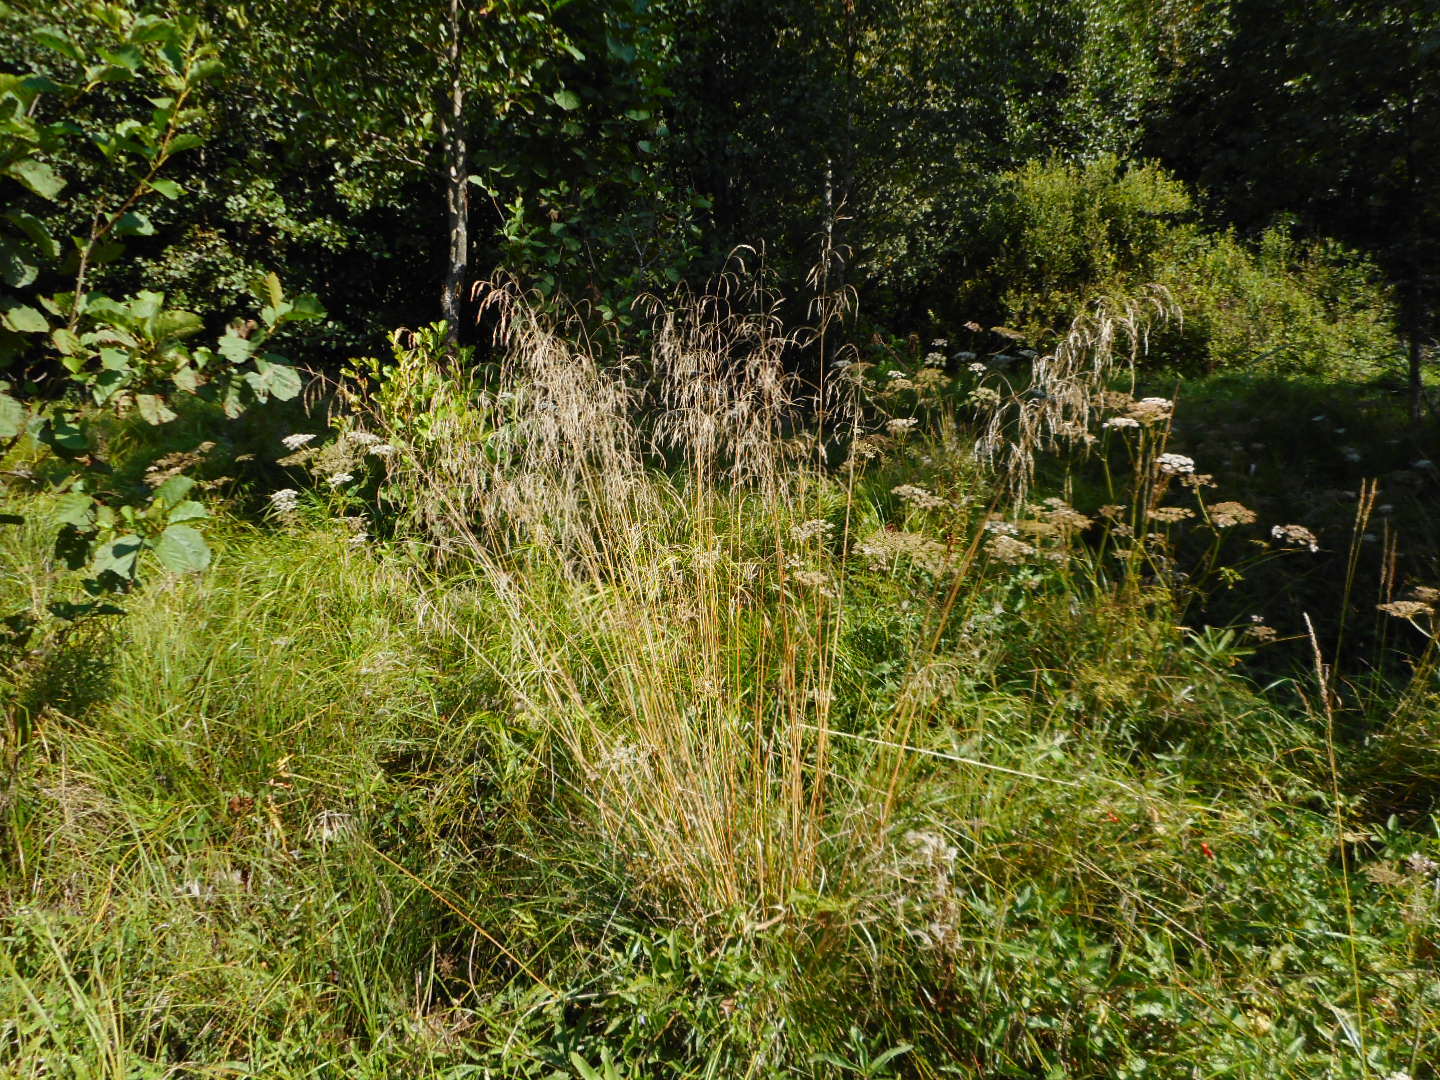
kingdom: Plantae
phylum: Tracheophyta
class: Liliopsida
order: Poales
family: Poaceae
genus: Deschampsia
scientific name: Deschampsia cespitosa
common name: Tufted hair-grass
